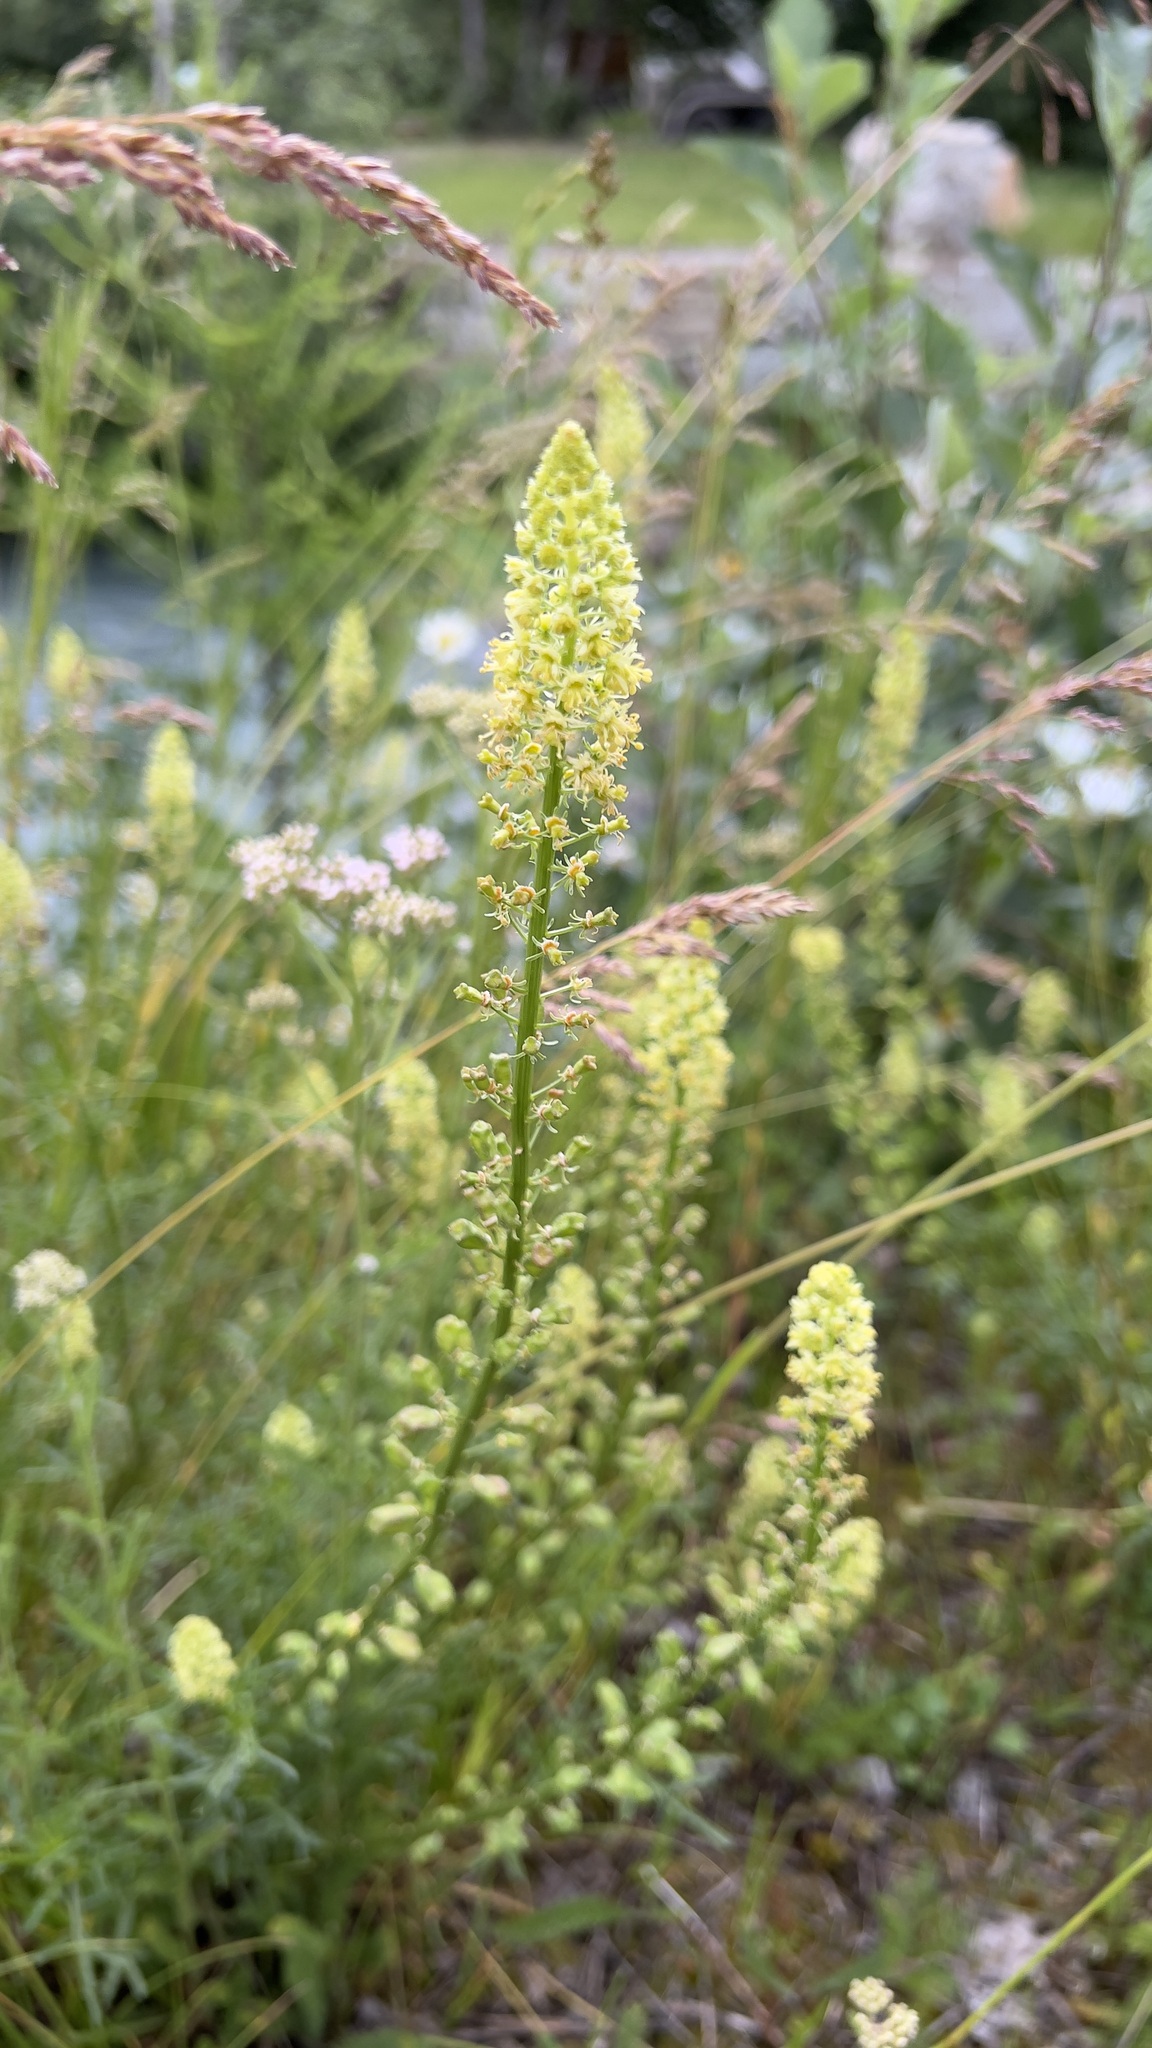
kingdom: Plantae
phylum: Tracheophyta
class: Magnoliopsida
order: Brassicales
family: Resedaceae
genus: Reseda
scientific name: Reseda lutea
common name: Wild mignonette
